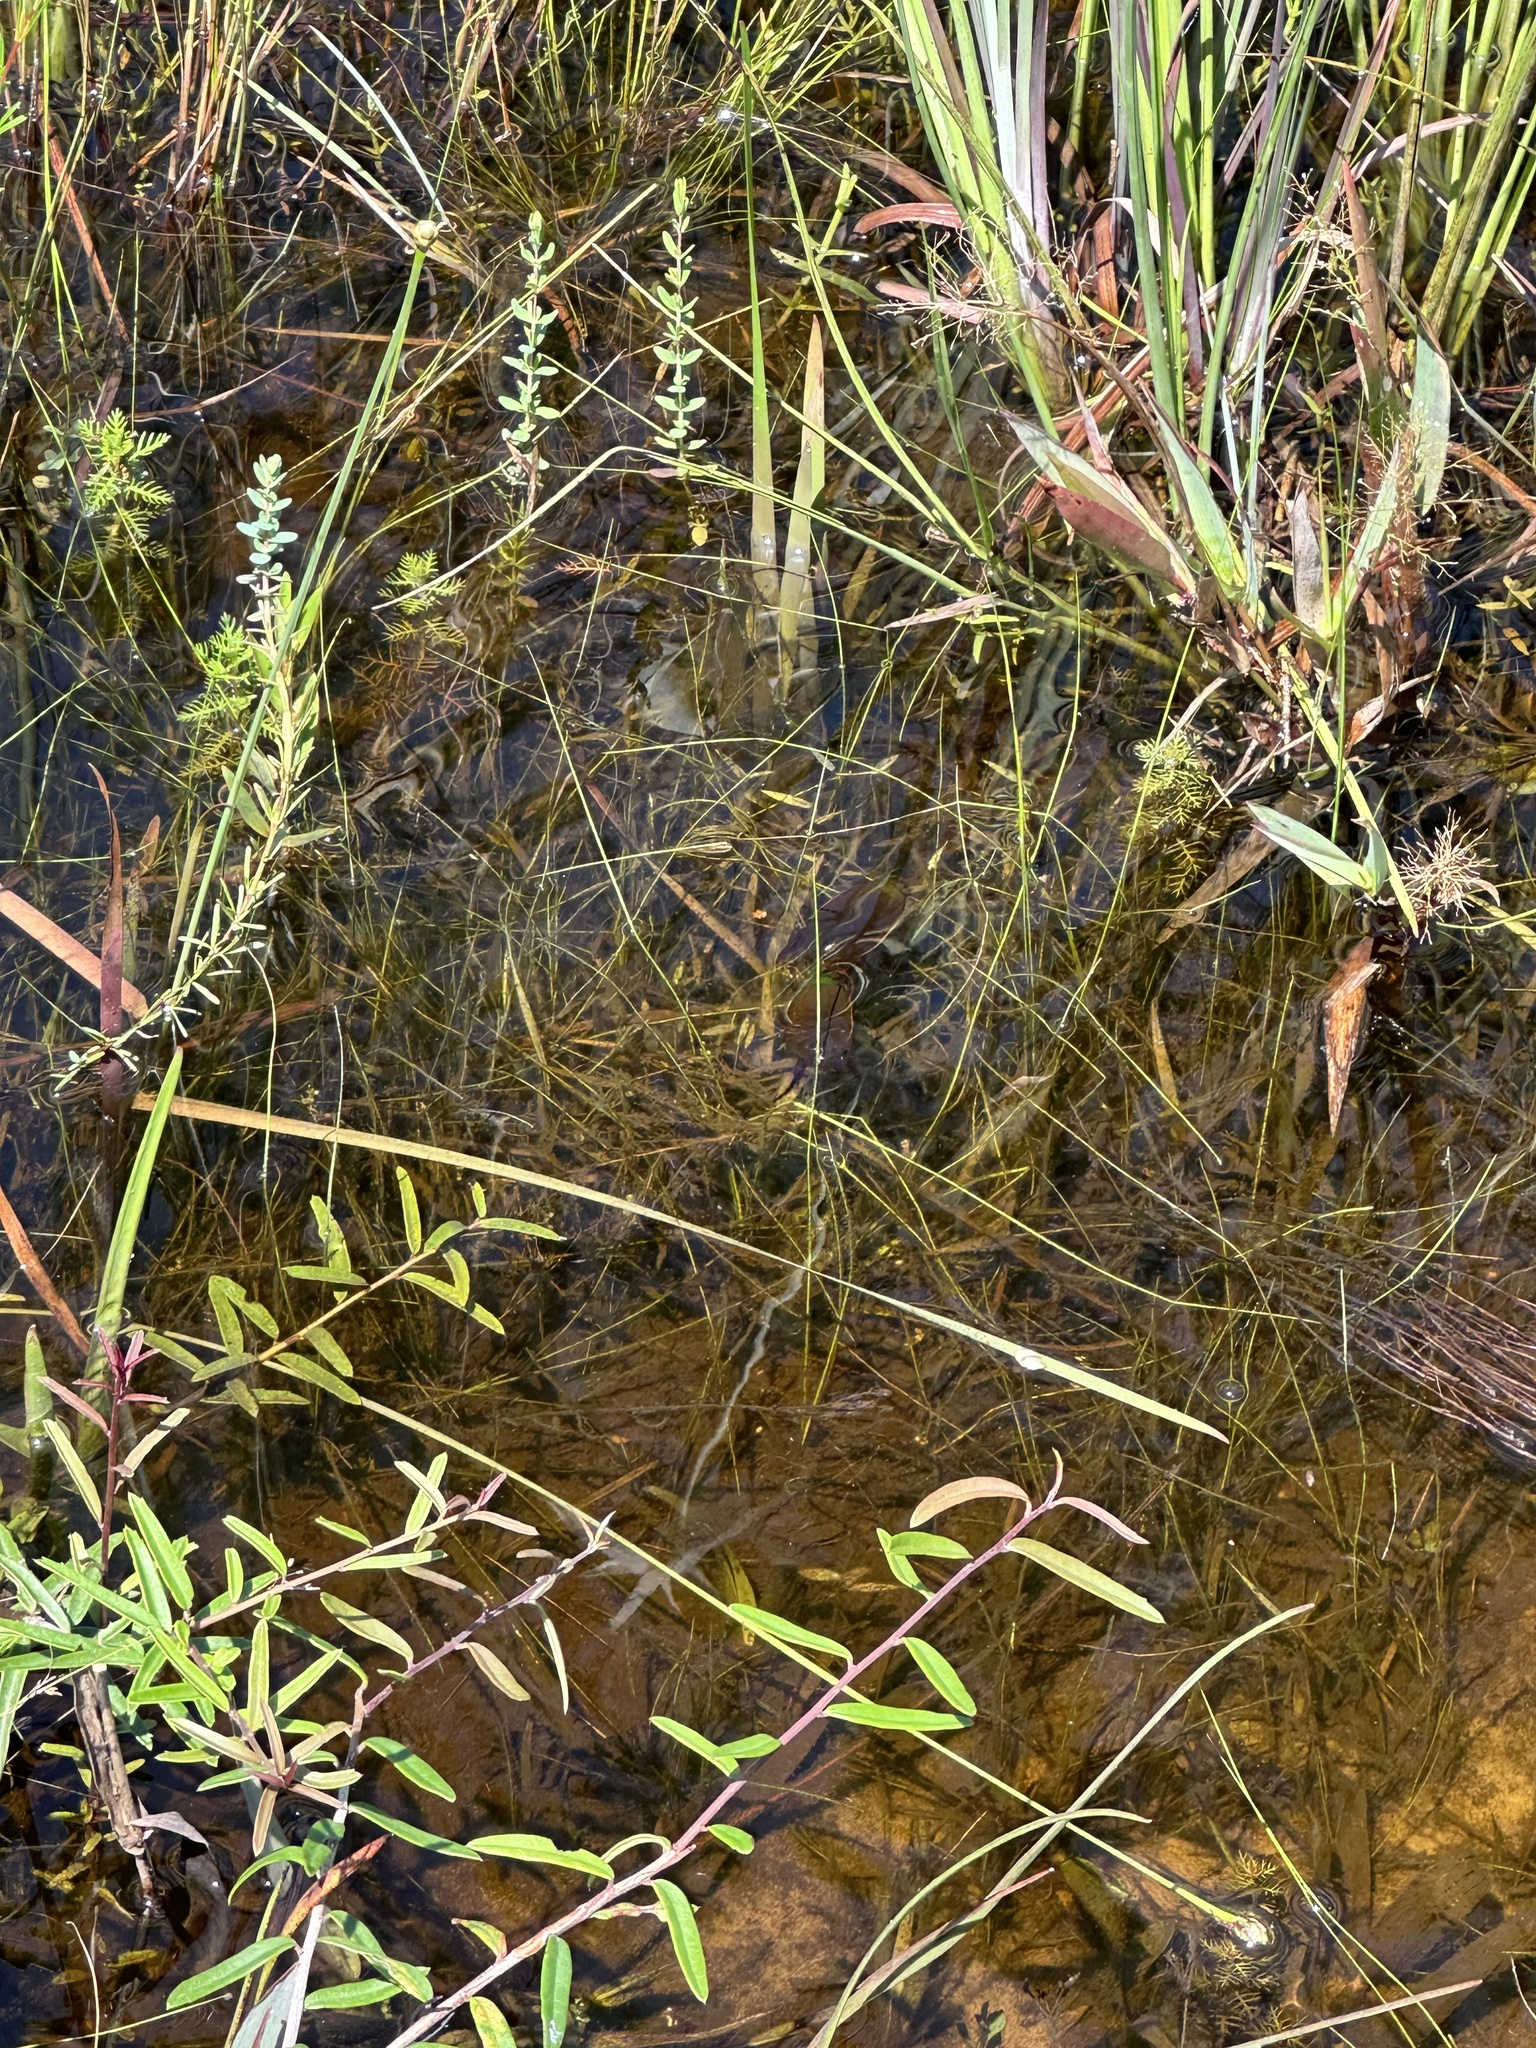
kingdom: Animalia
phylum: Arthropoda
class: Insecta
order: Coleoptera
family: Dytiscidae
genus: Cybister
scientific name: Cybister fimbriolatus
